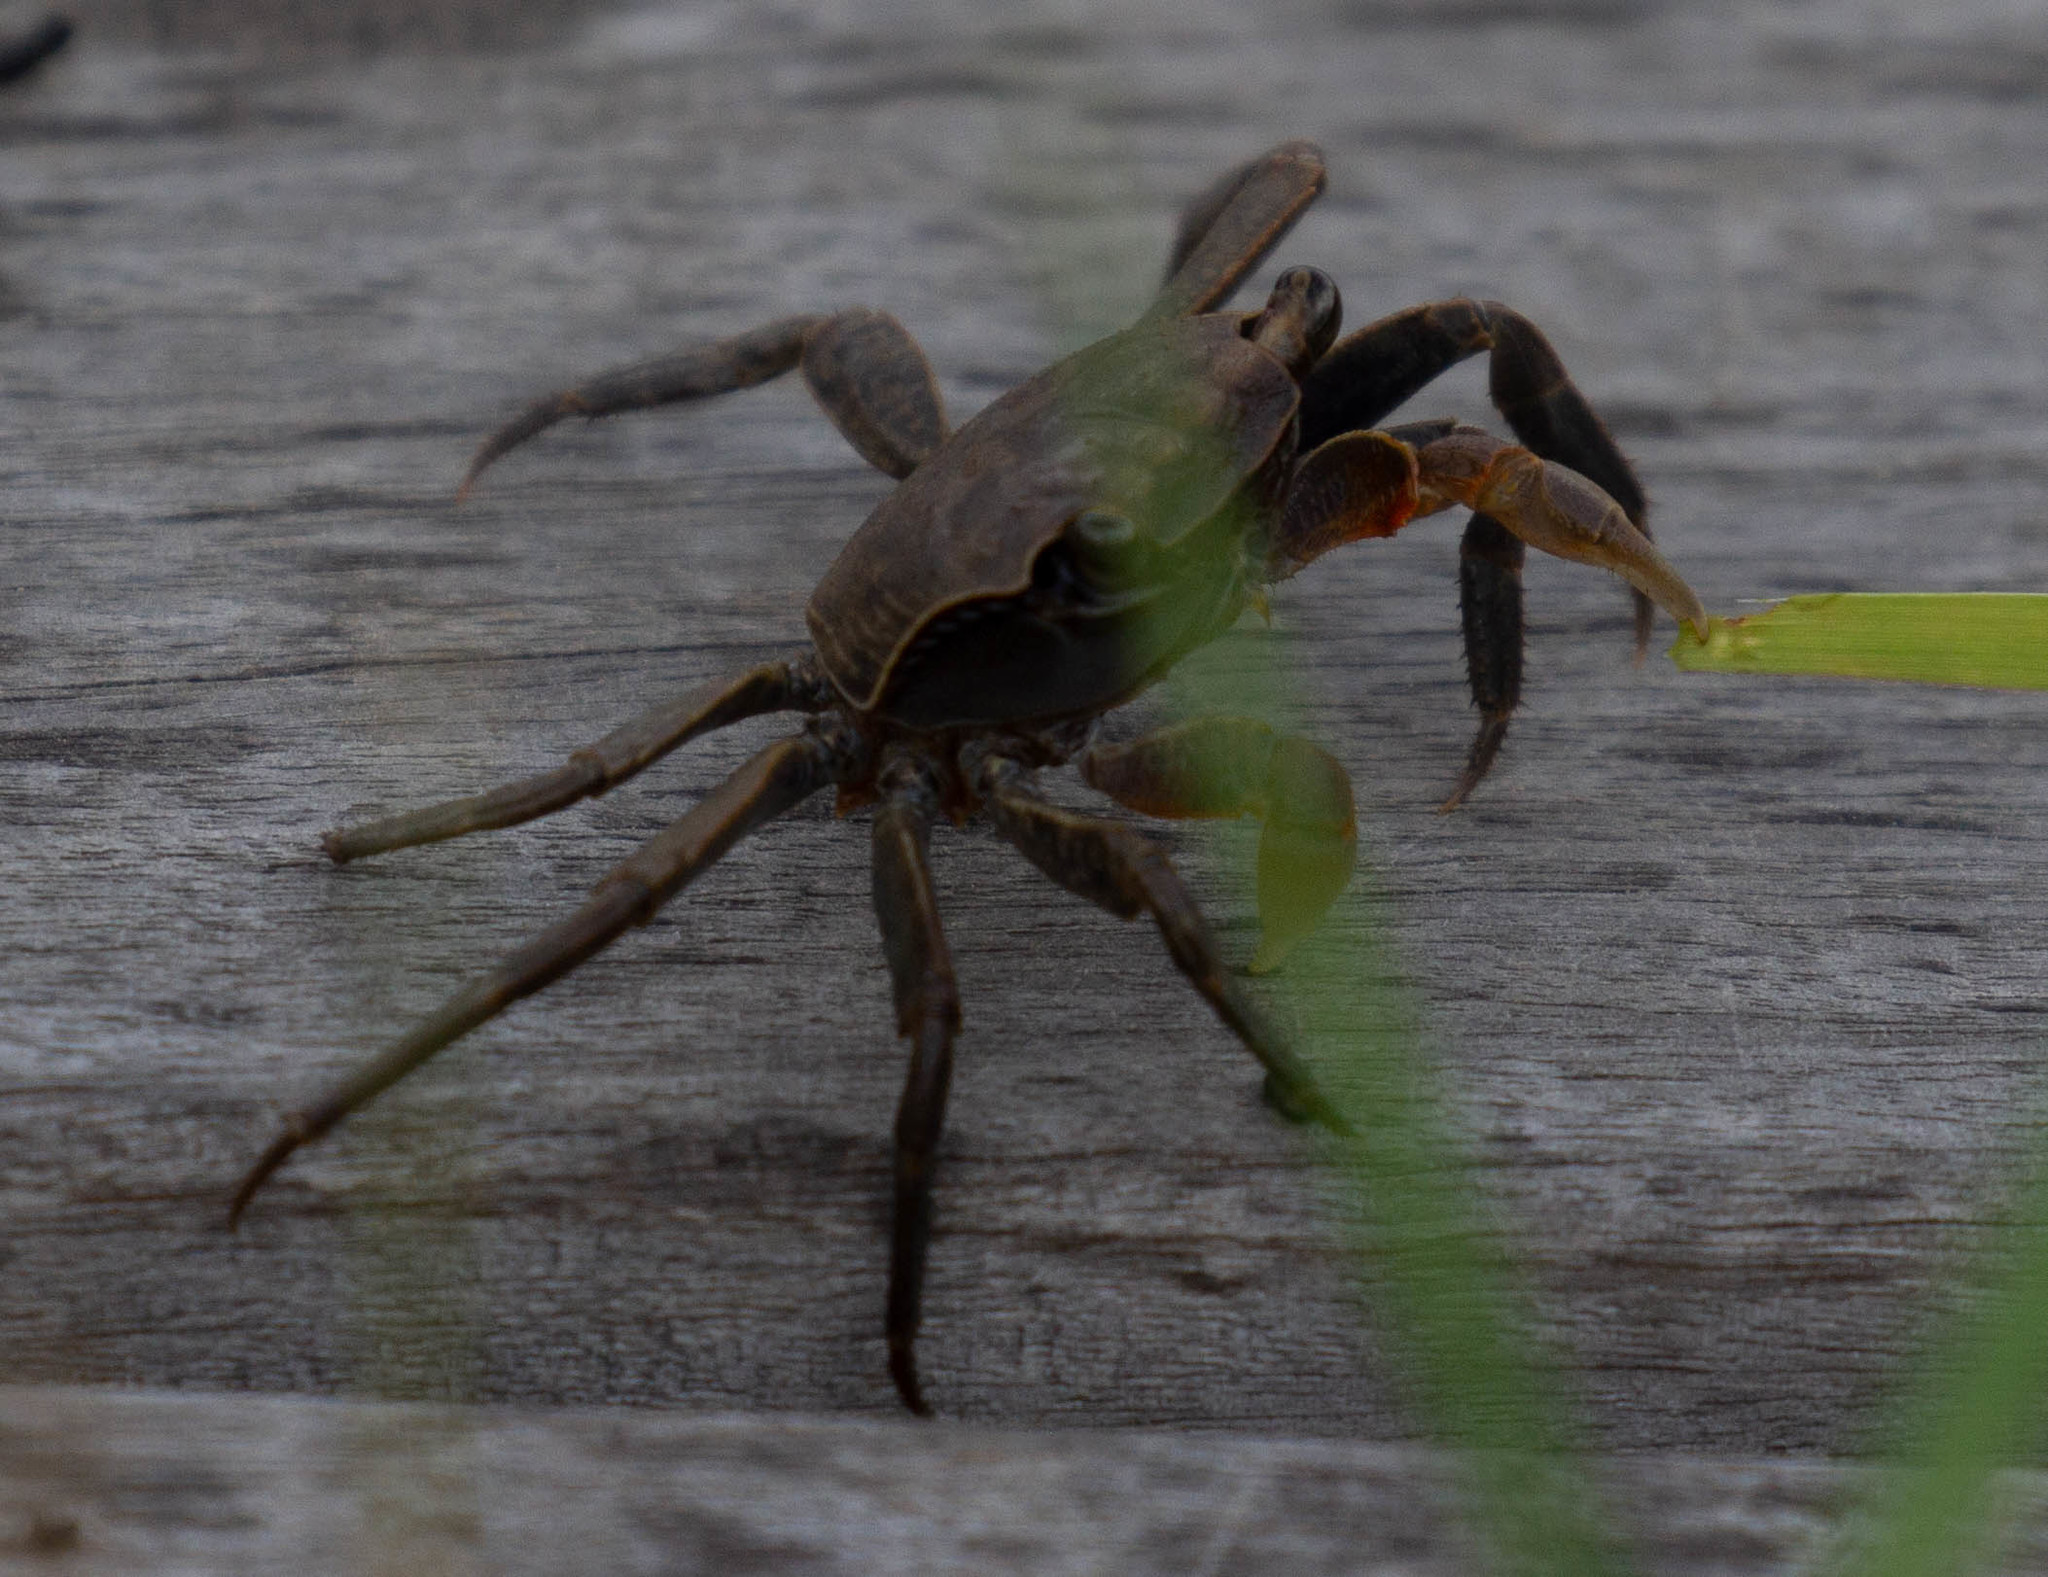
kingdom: Animalia
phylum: Arthropoda
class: Malacostraca
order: Decapoda
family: Sesarmidae
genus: Armases
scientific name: Armases cinereum
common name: Squareback marsh crab
